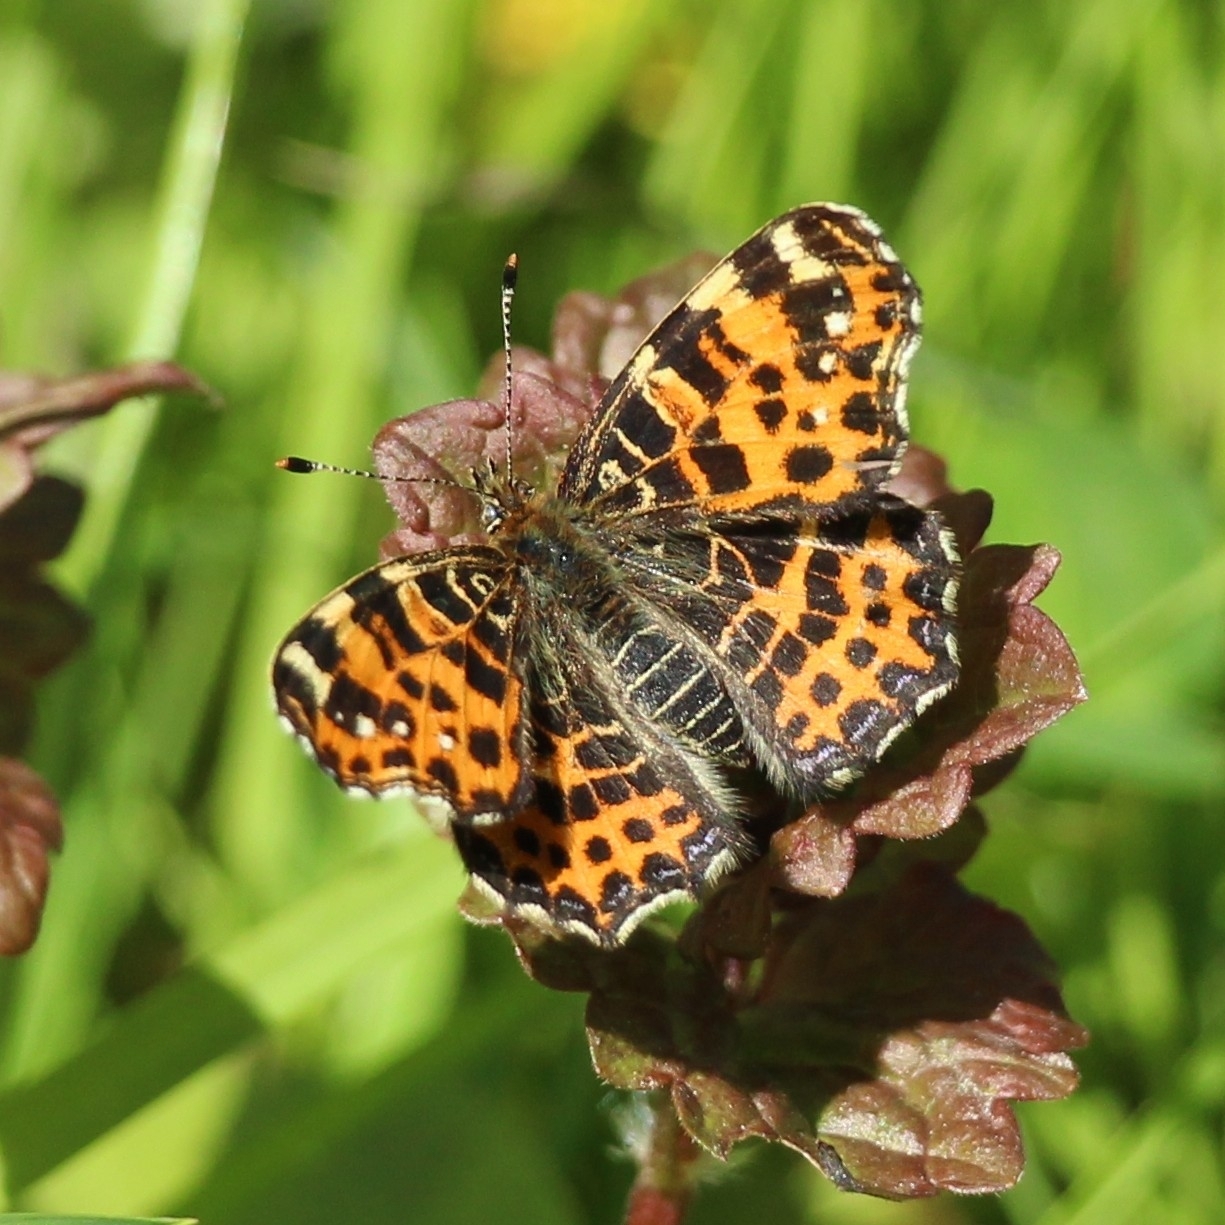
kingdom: Animalia
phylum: Arthropoda
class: Insecta
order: Lepidoptera
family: Nymphalidae
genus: Araschnia
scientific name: Araschnia levana
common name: Map butterfly
